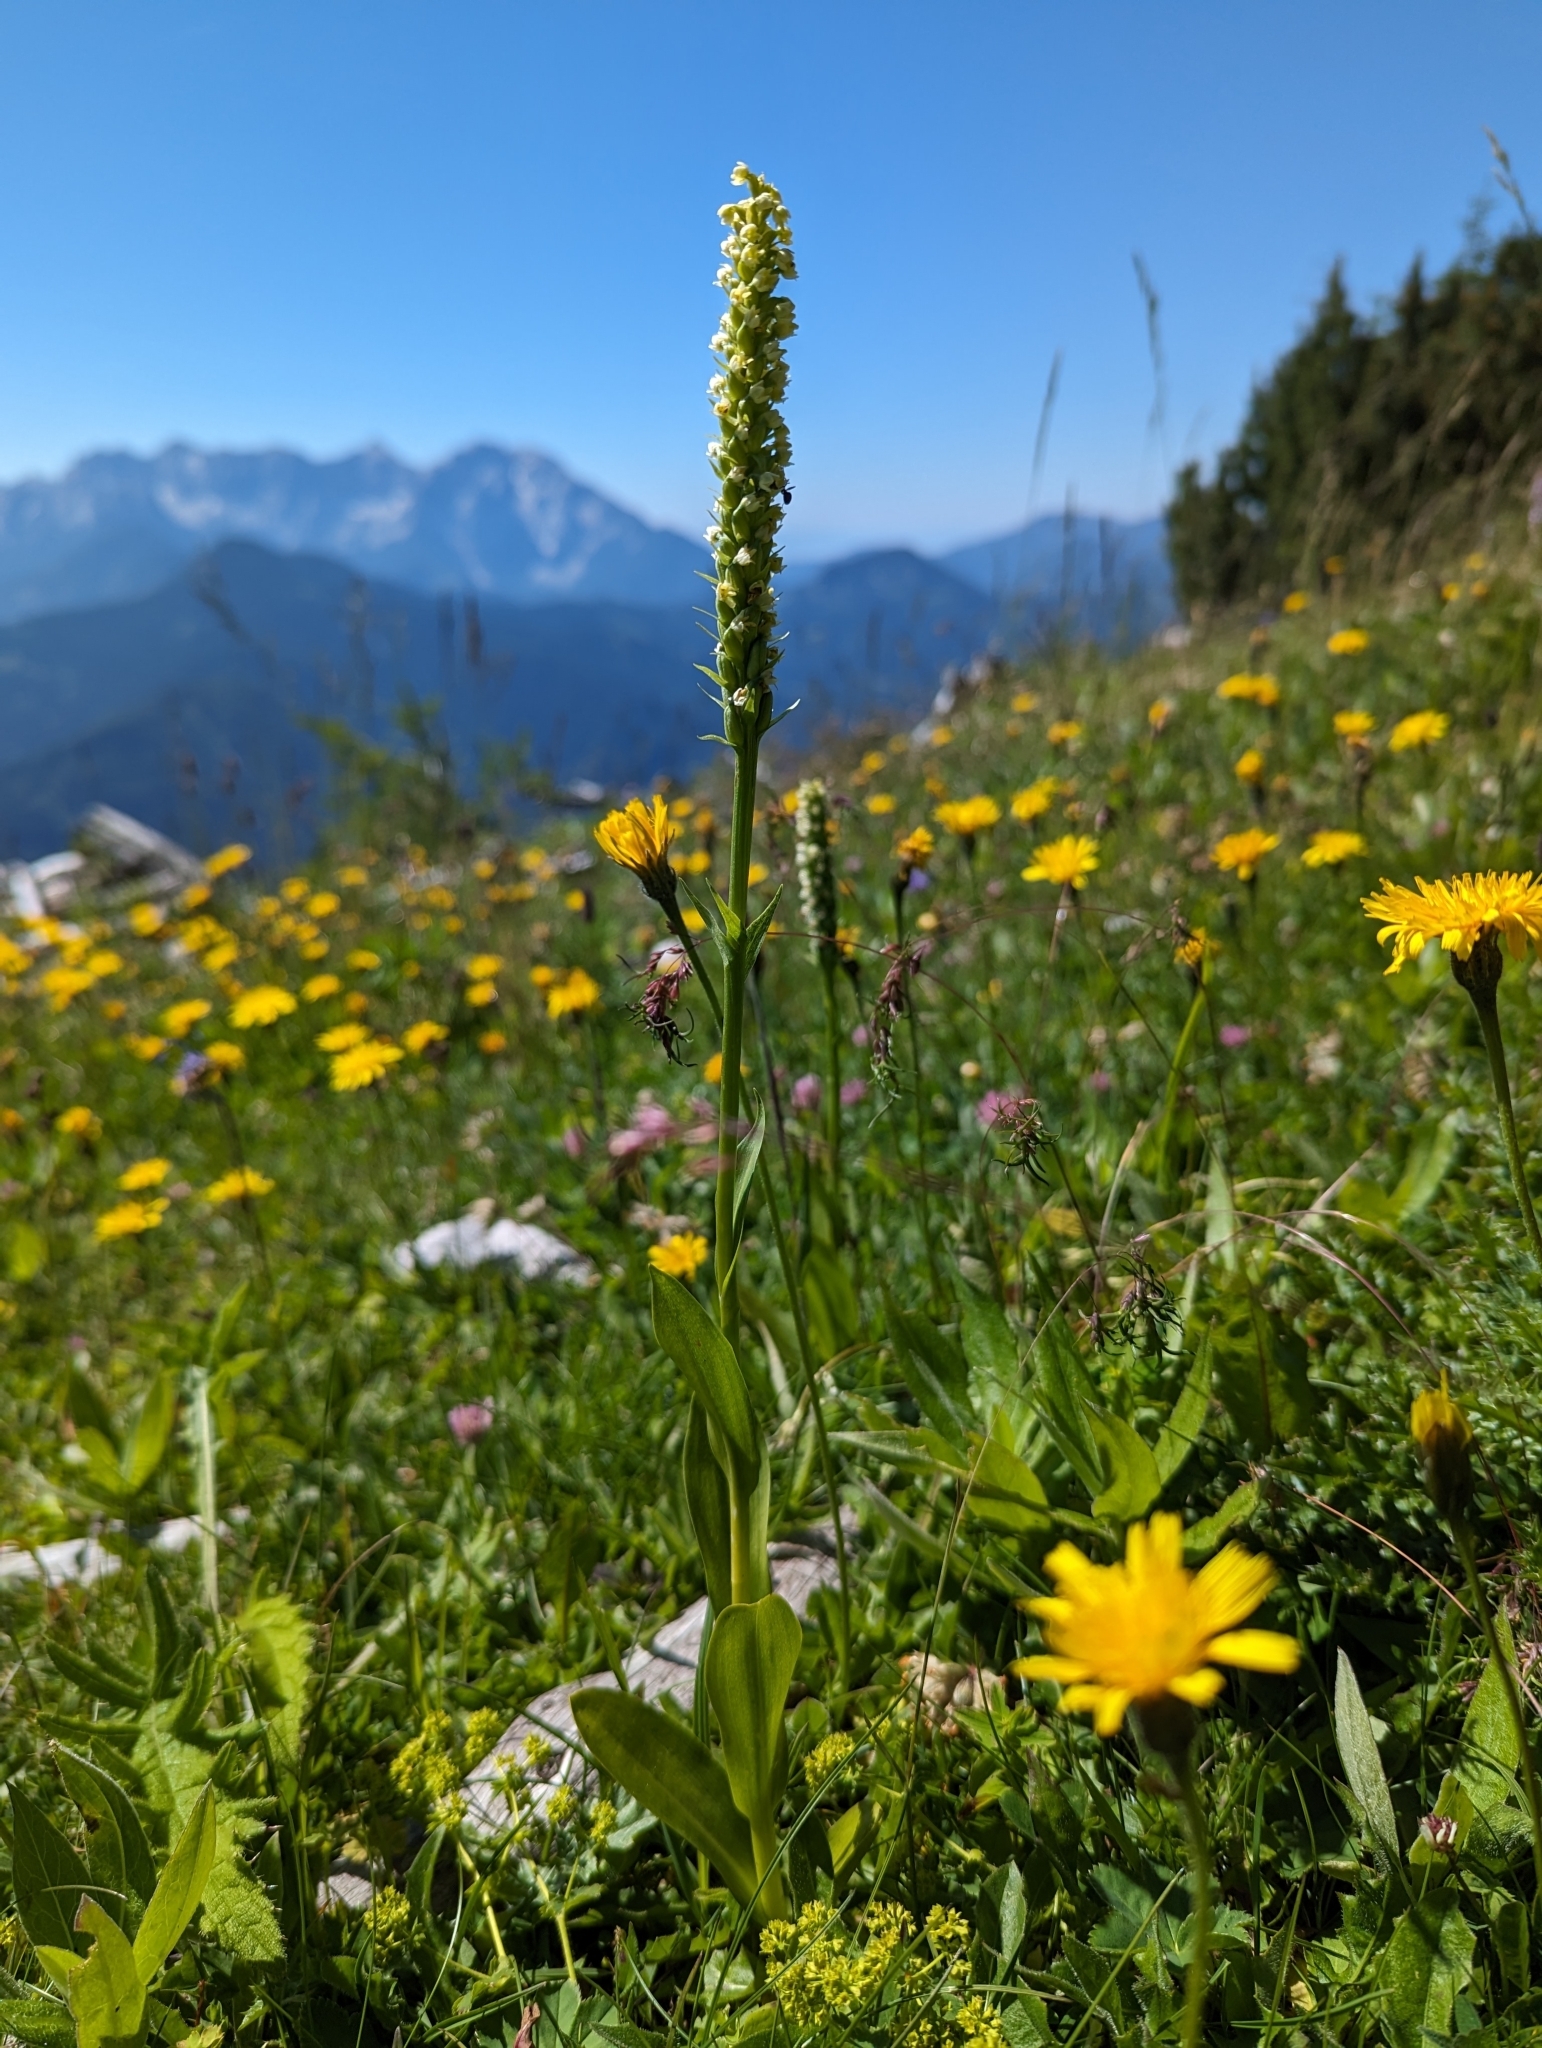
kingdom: Plantae
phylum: Tracheophyta
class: Liliopsida
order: Asparagales
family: Orchidaceae
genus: Pseudorchis
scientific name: Pseudorchis albida
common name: Small-white orchid
